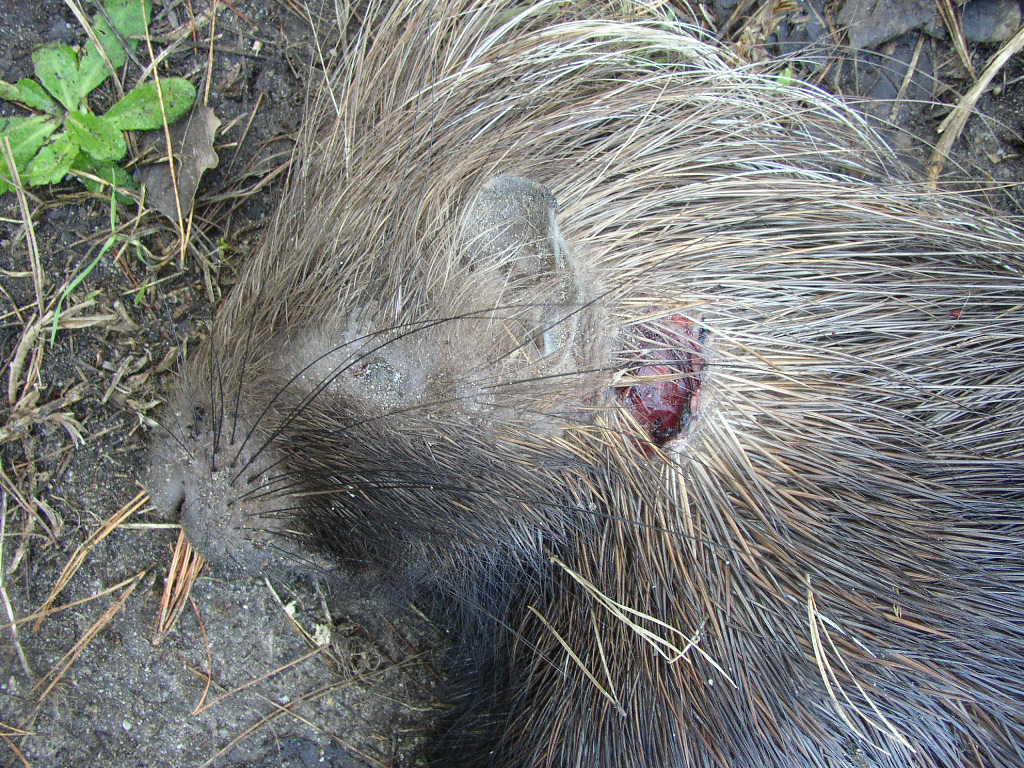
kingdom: Animalia
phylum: Chordata
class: Mammalia
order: Rodentia
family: Hystricidae
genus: Hystrix
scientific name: Hystrix africaeaustralis
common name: Cape porcupine
